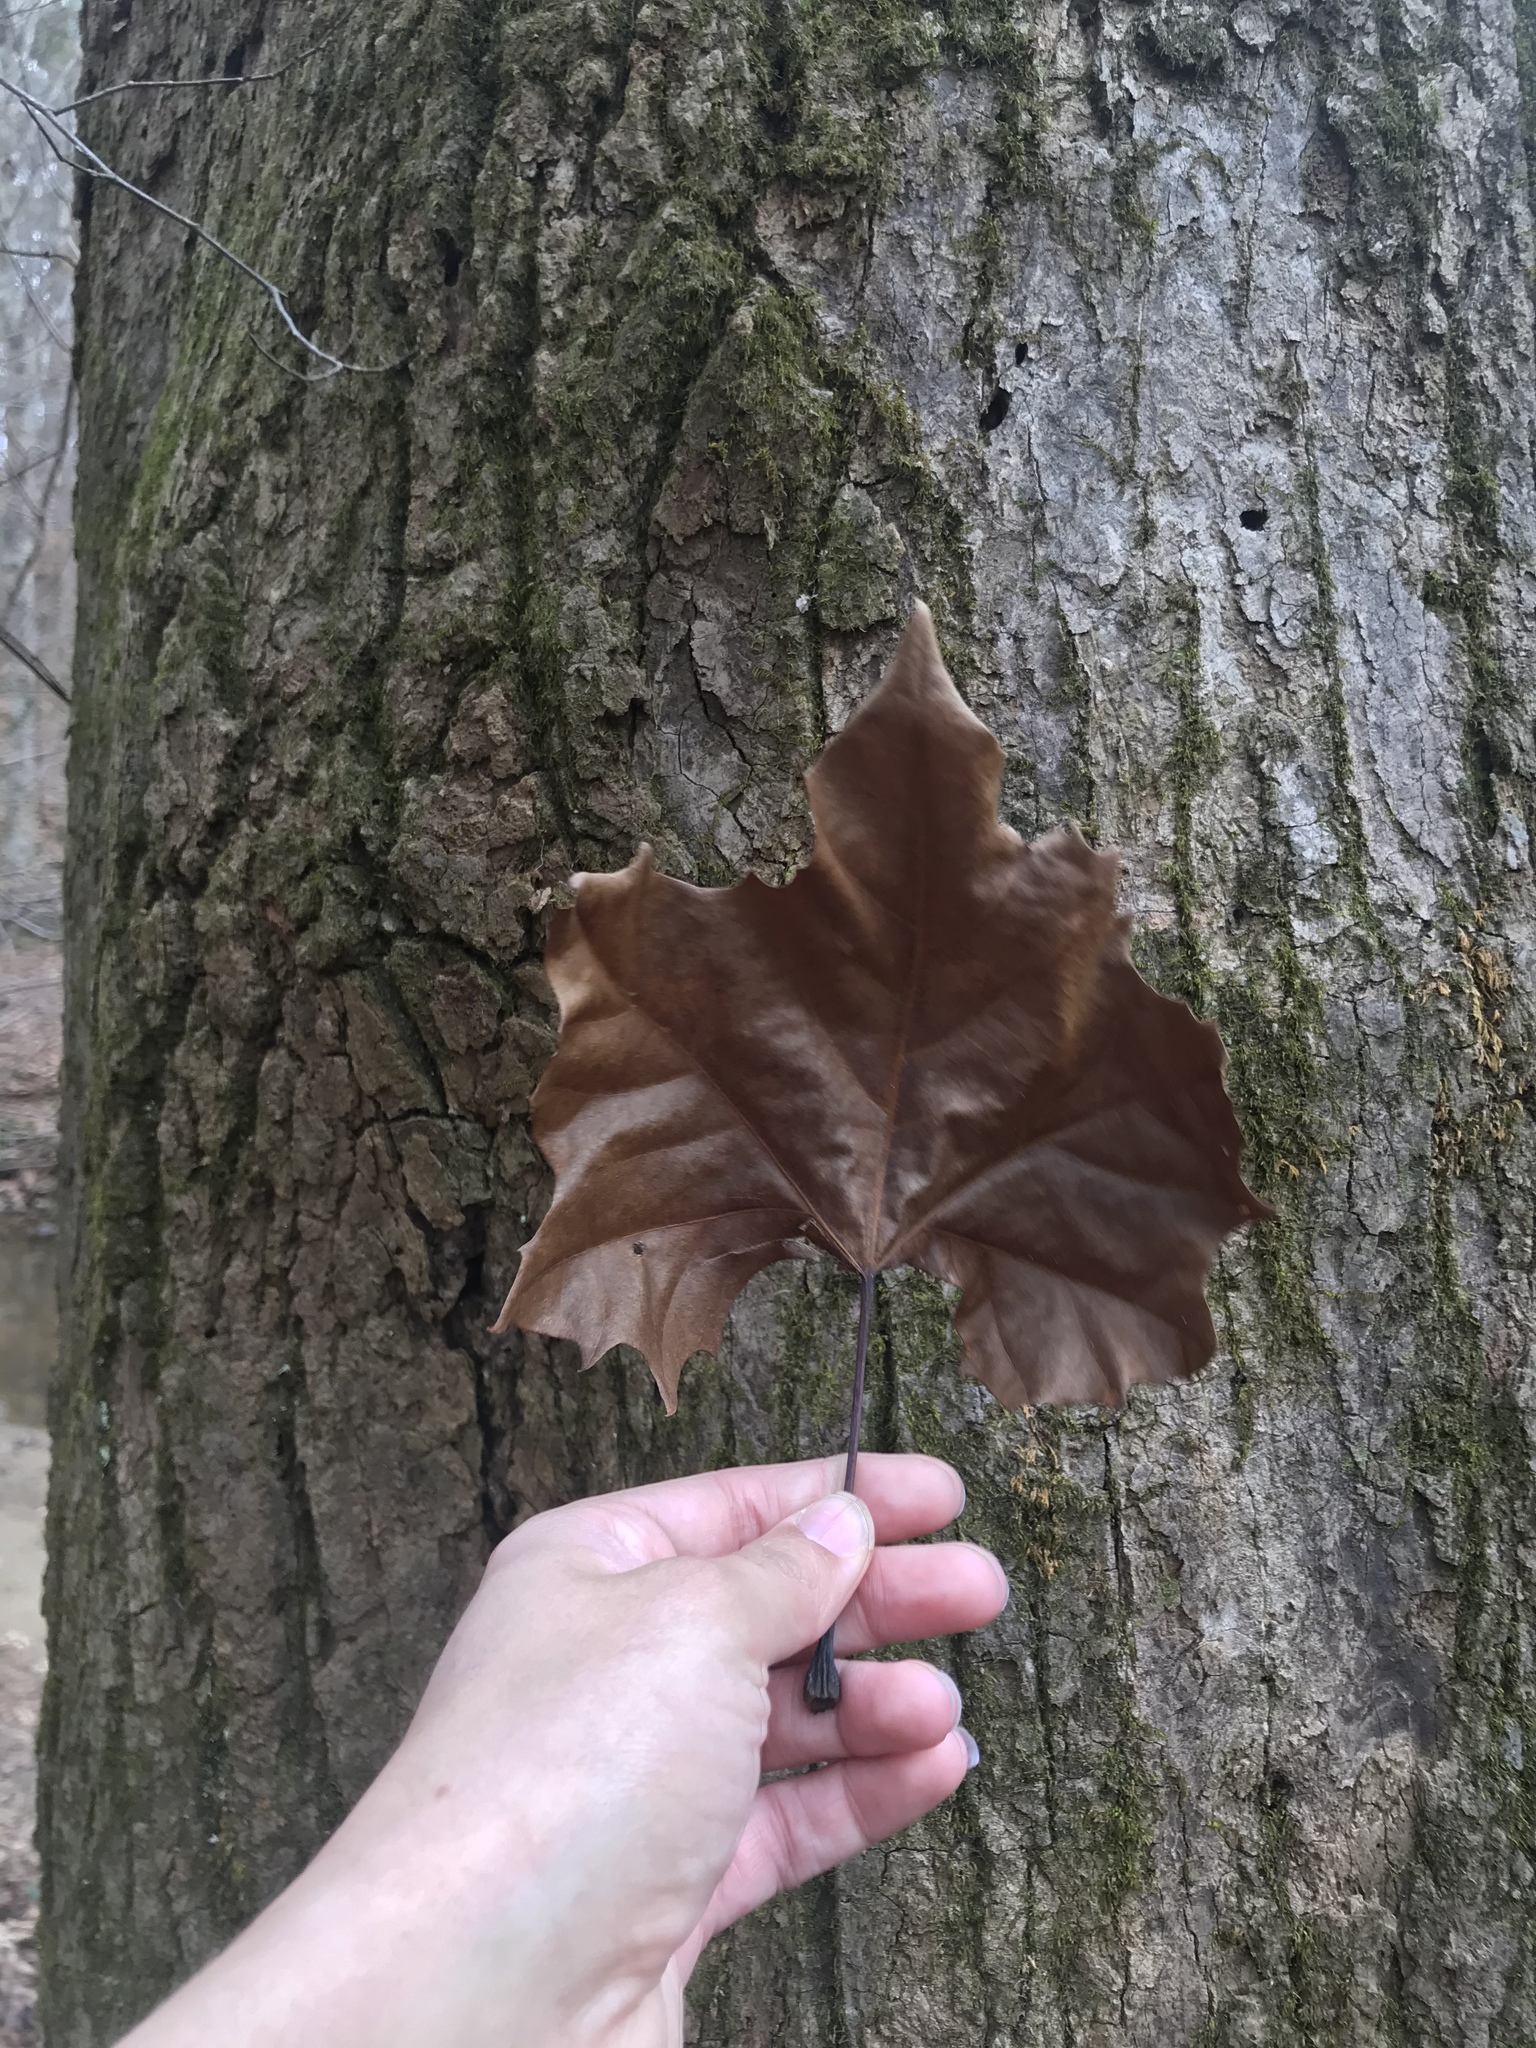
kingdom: Plantae
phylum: Tracheophyta
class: Magnoliopsida
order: Proteales
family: Platanaceae
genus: Platanus
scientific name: Platanus occidentalis
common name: American sycamore
